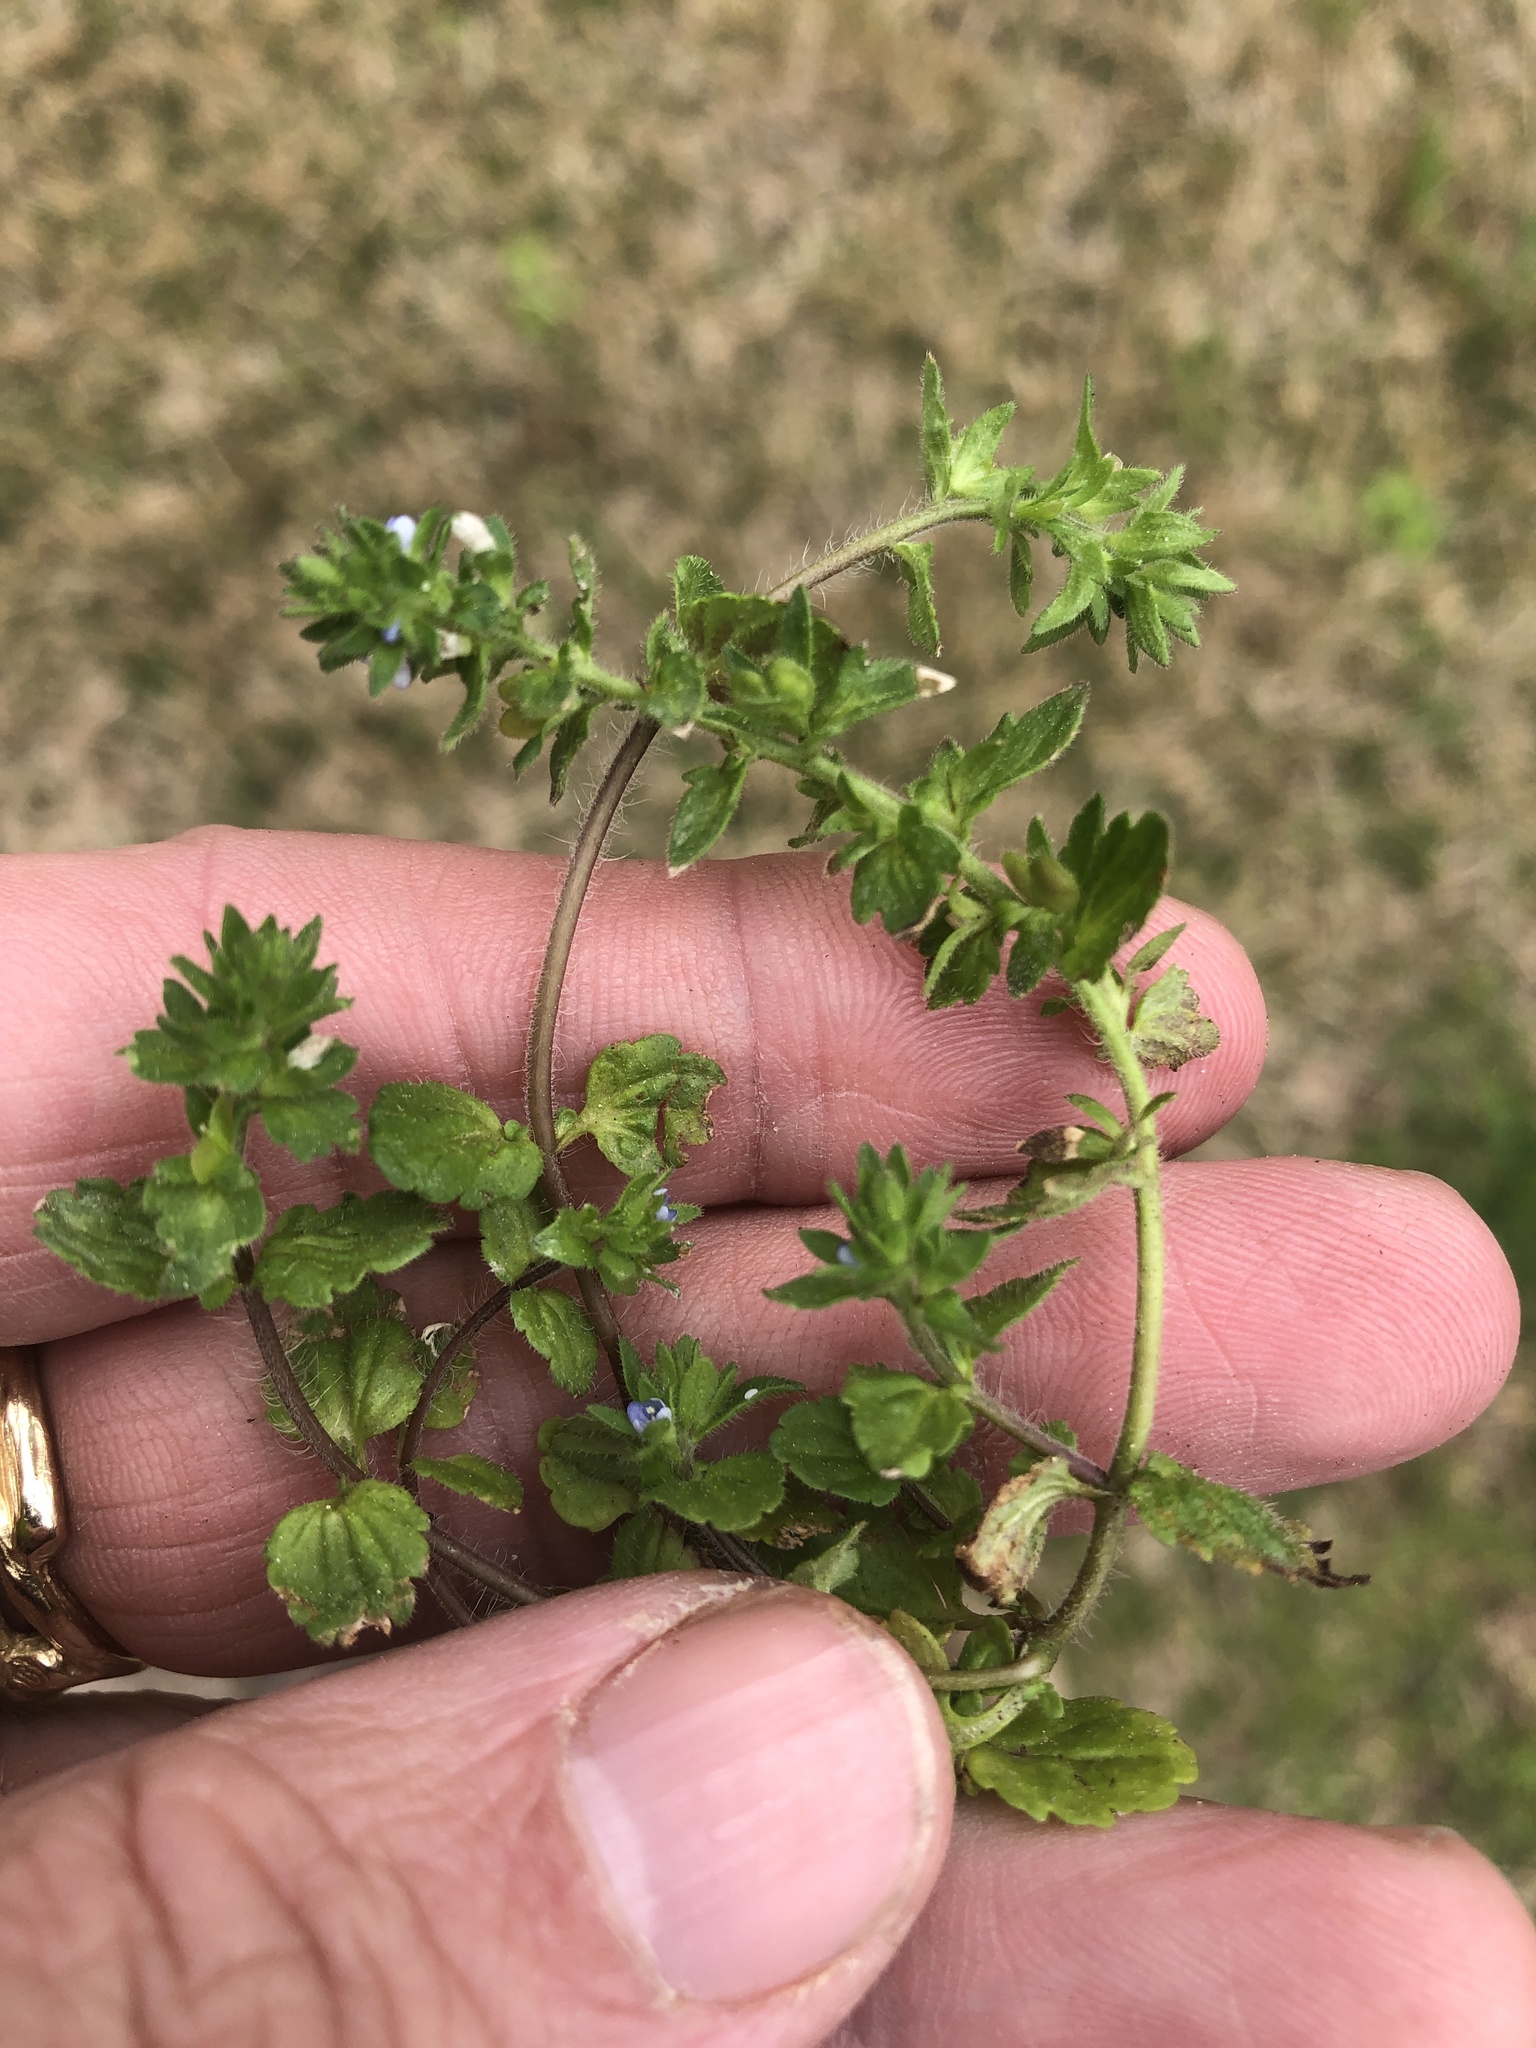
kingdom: Plantae
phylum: Tracheophyta
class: Magnoliopsida
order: Lamiales
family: Plantaginaceae
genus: Veronica
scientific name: Veronica arvensis
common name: Corn speedwell
